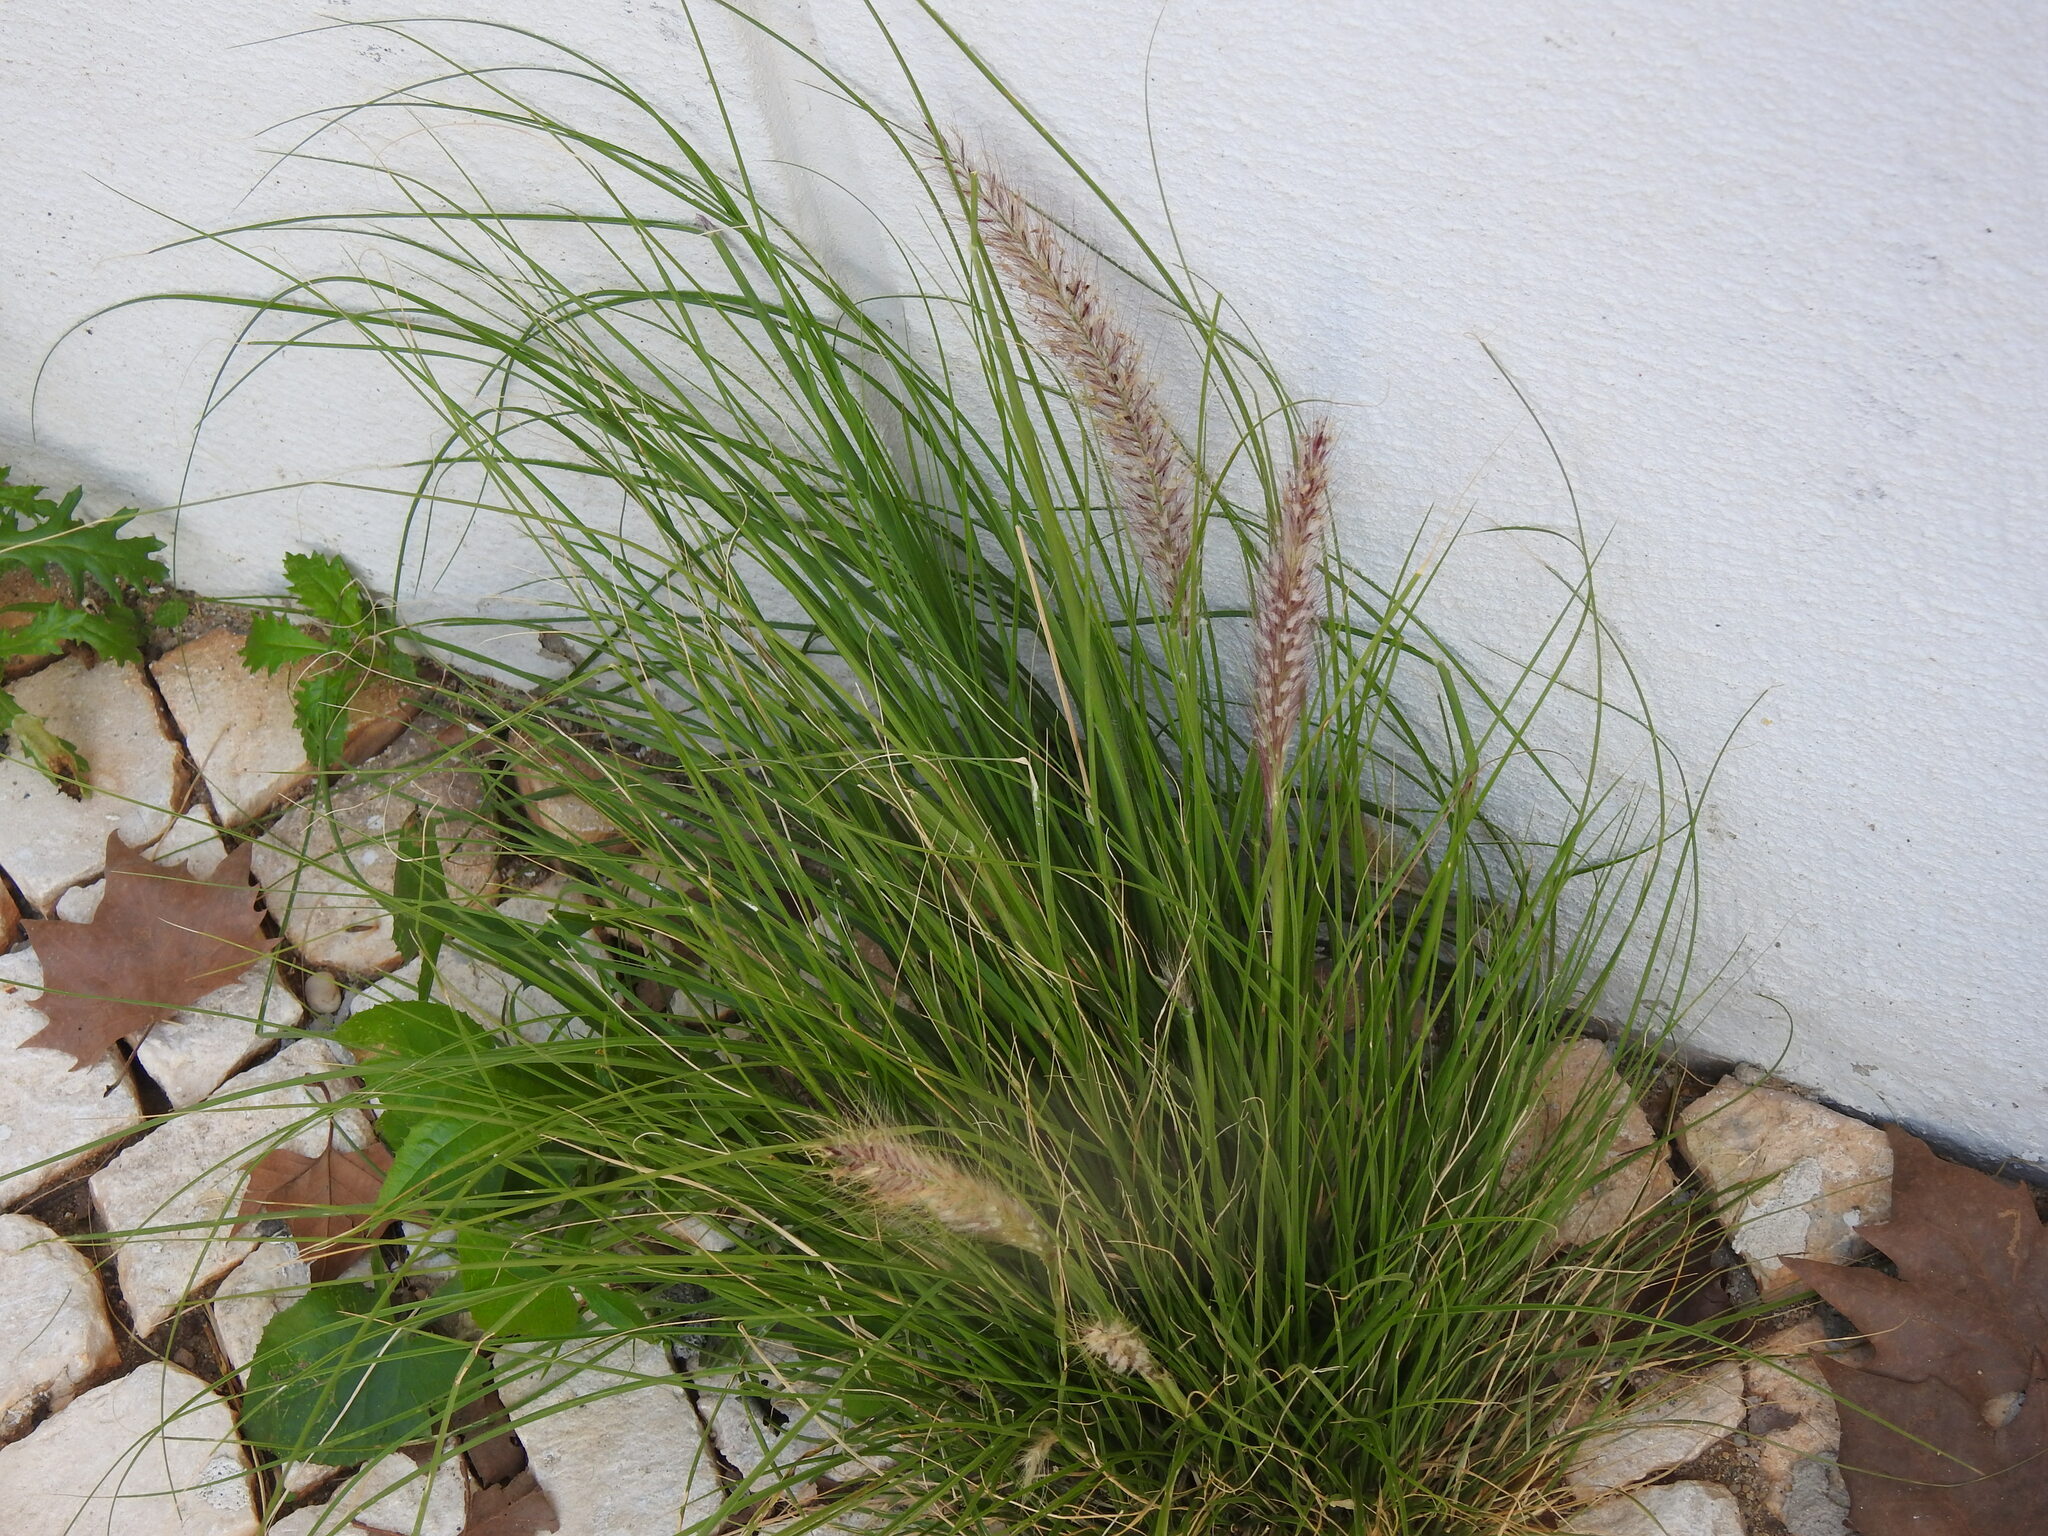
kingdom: Plantae
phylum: Tracheophyta
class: Liliopsida
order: Poales
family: Poaceae
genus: Cenchrus
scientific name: Cenchrus setaceus
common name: Crimson fountaingrass
